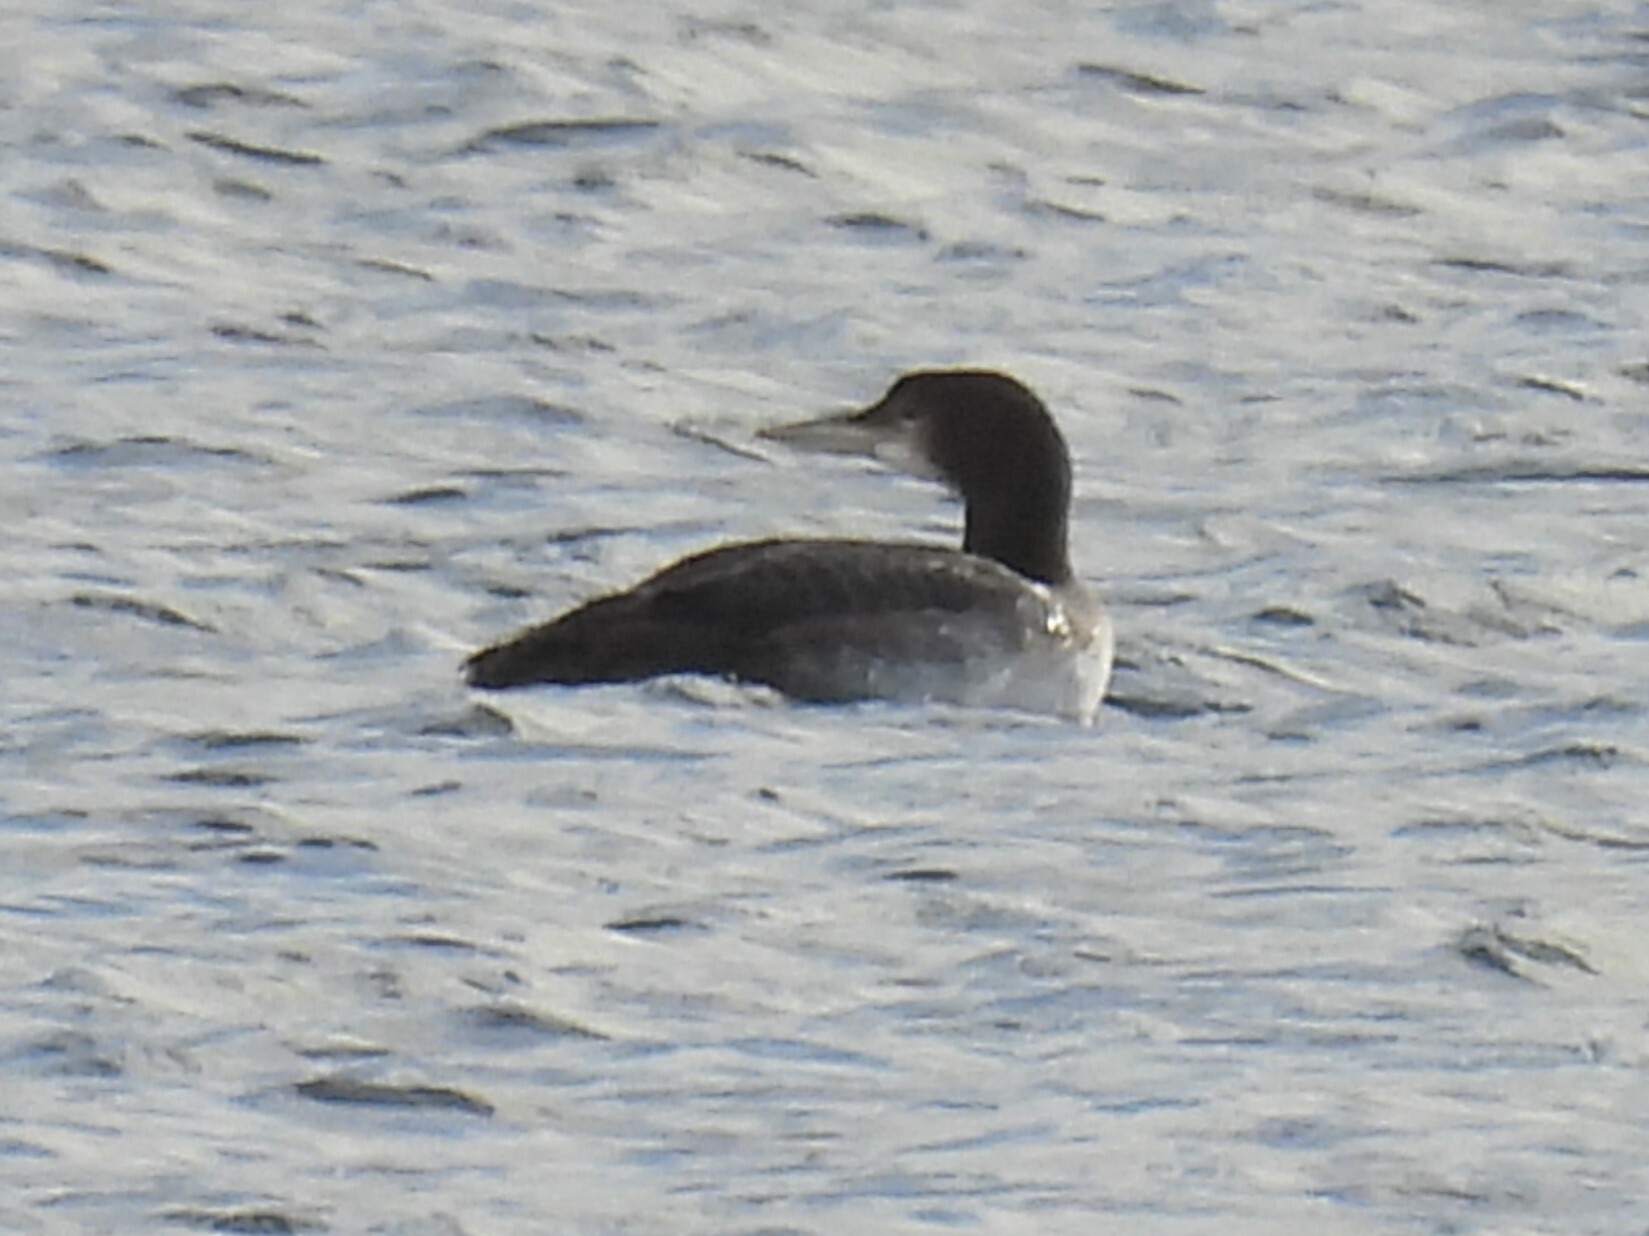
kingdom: Animalia
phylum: Chordata
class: Aves
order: Gaviiformes
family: Gaviidae
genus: Gavia
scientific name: Gavia immer
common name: Common loon
